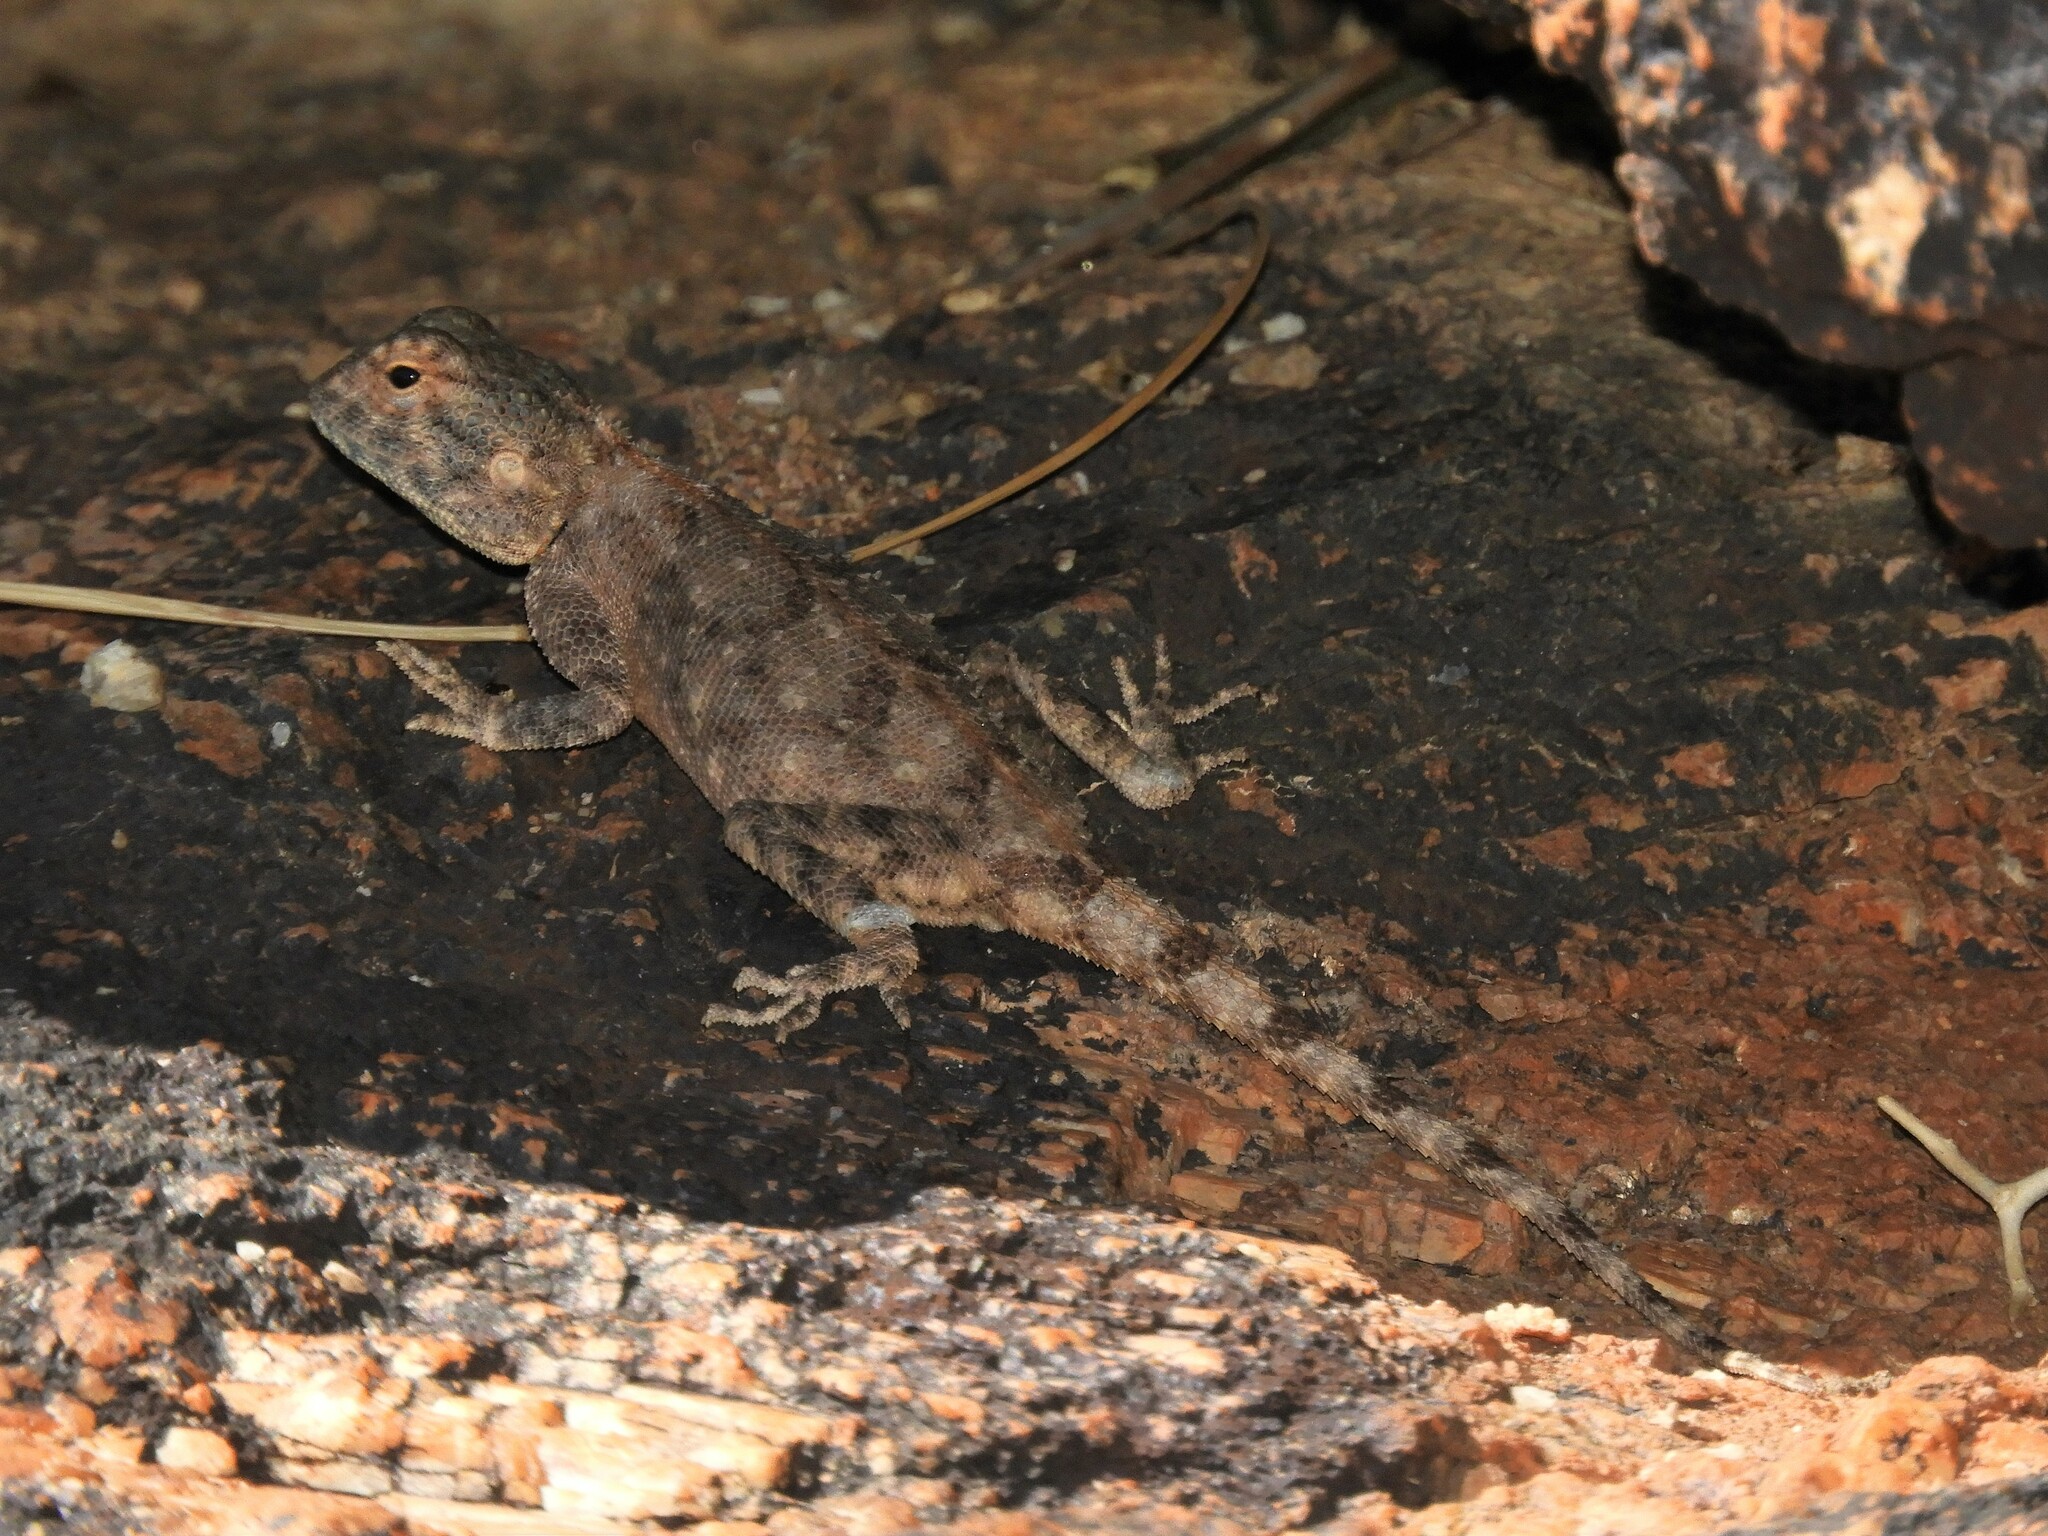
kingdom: Animalia
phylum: Chordata
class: Squamata
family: Agamidae
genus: Agama
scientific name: Agama anchietae
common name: Anchieta's agama
